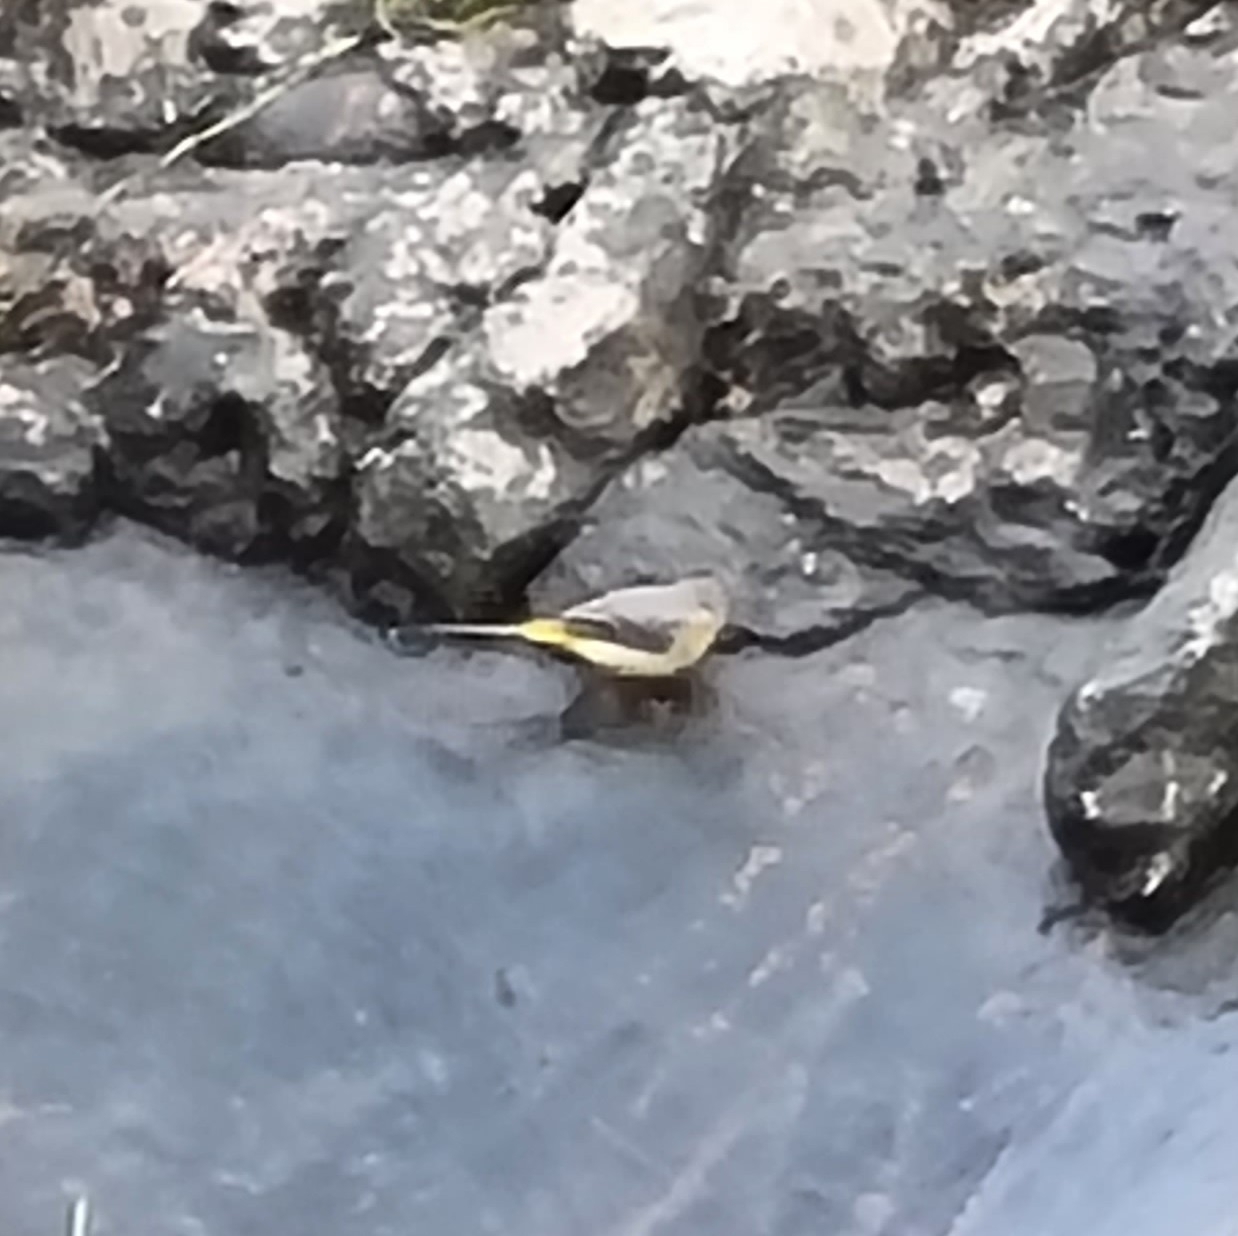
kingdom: Animalia
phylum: Chordata
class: Aves
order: Passeriformes
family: Motacillidae
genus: Motacilla
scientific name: Motacilla cinerea
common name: Grey wagtail
